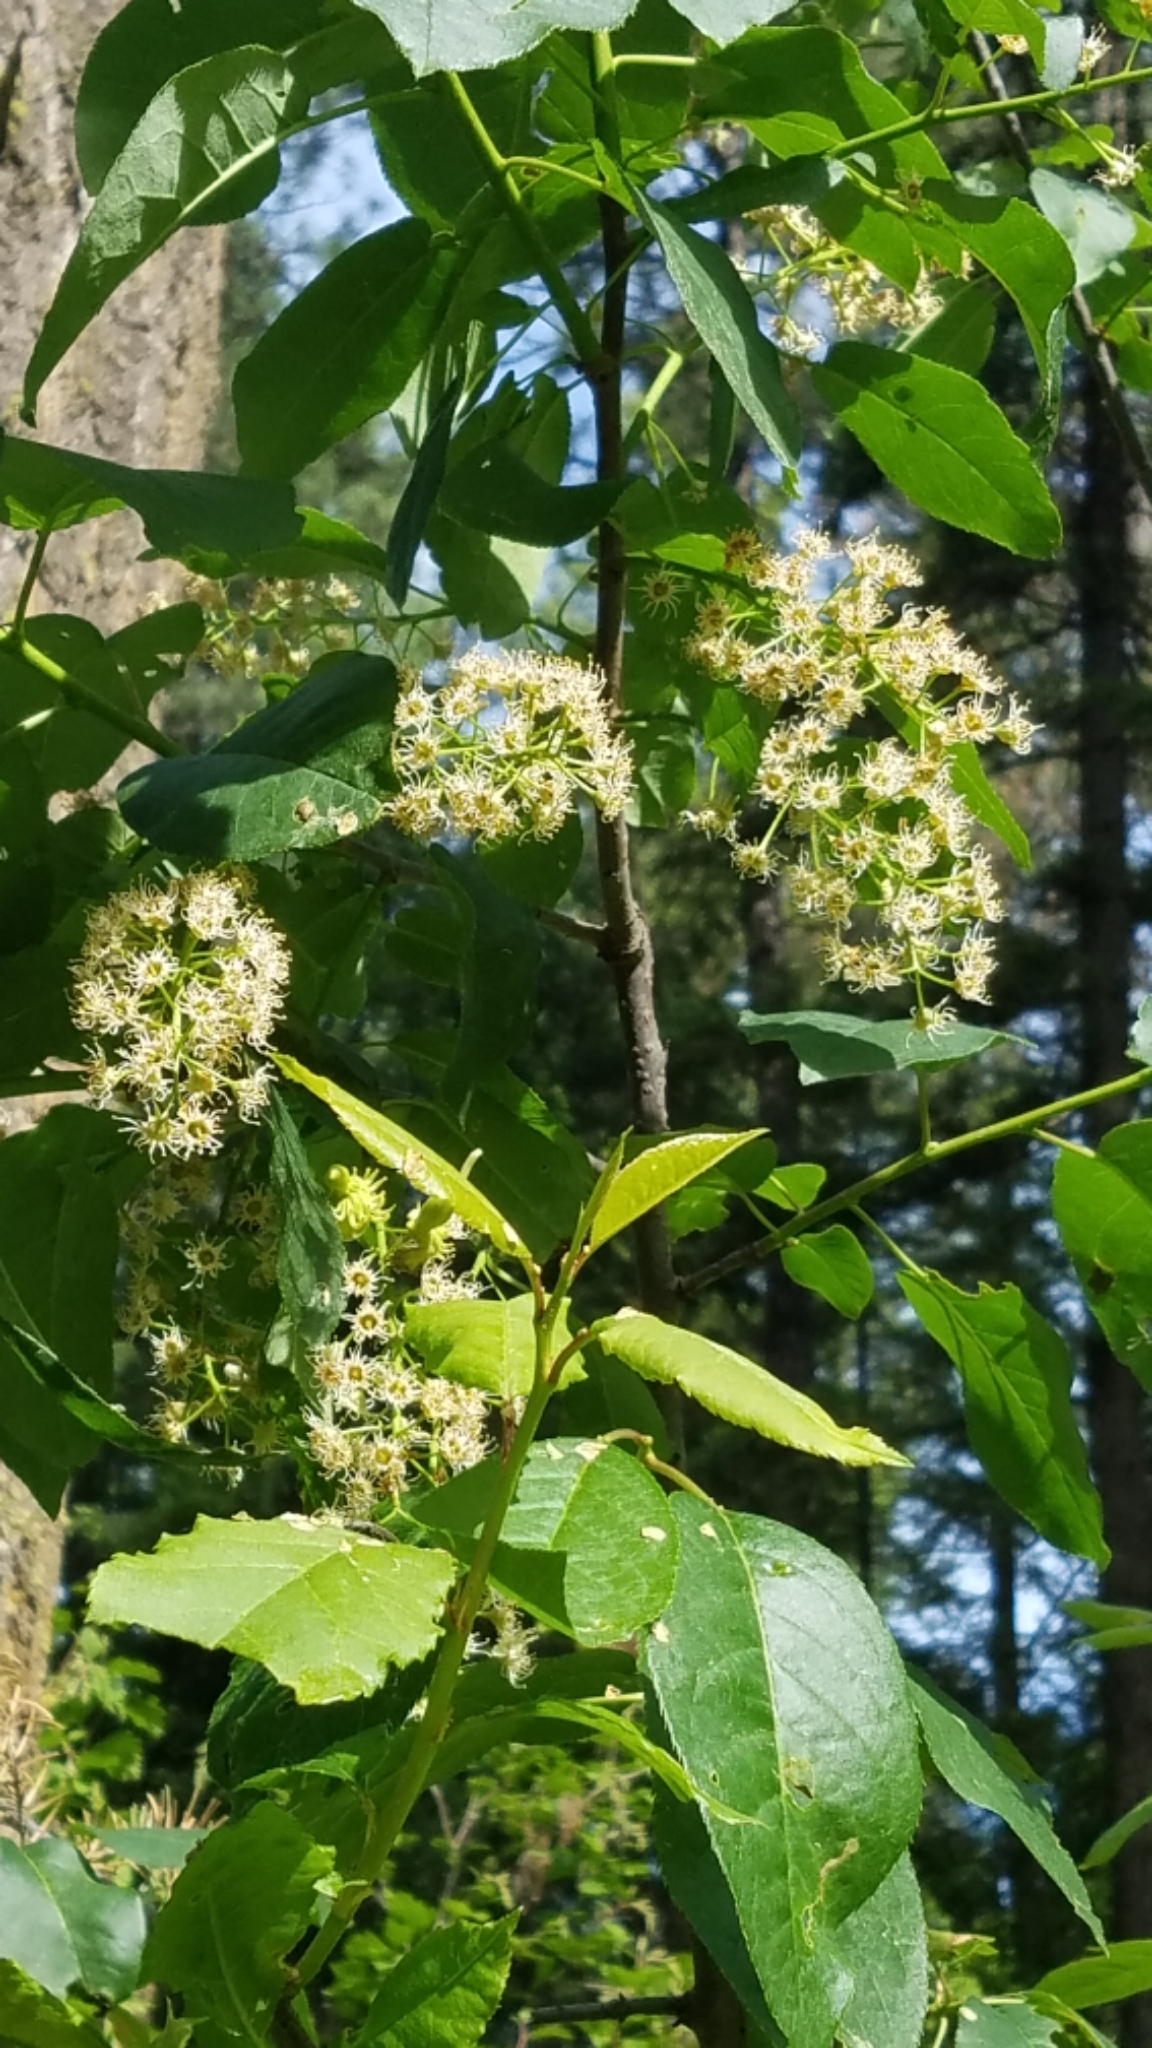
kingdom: Plantae
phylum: Tracheophyta
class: Magnoliopsida
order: Rosales
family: Rosaceae
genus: Prunus
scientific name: Prunus virginiana
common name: Chokecherry
